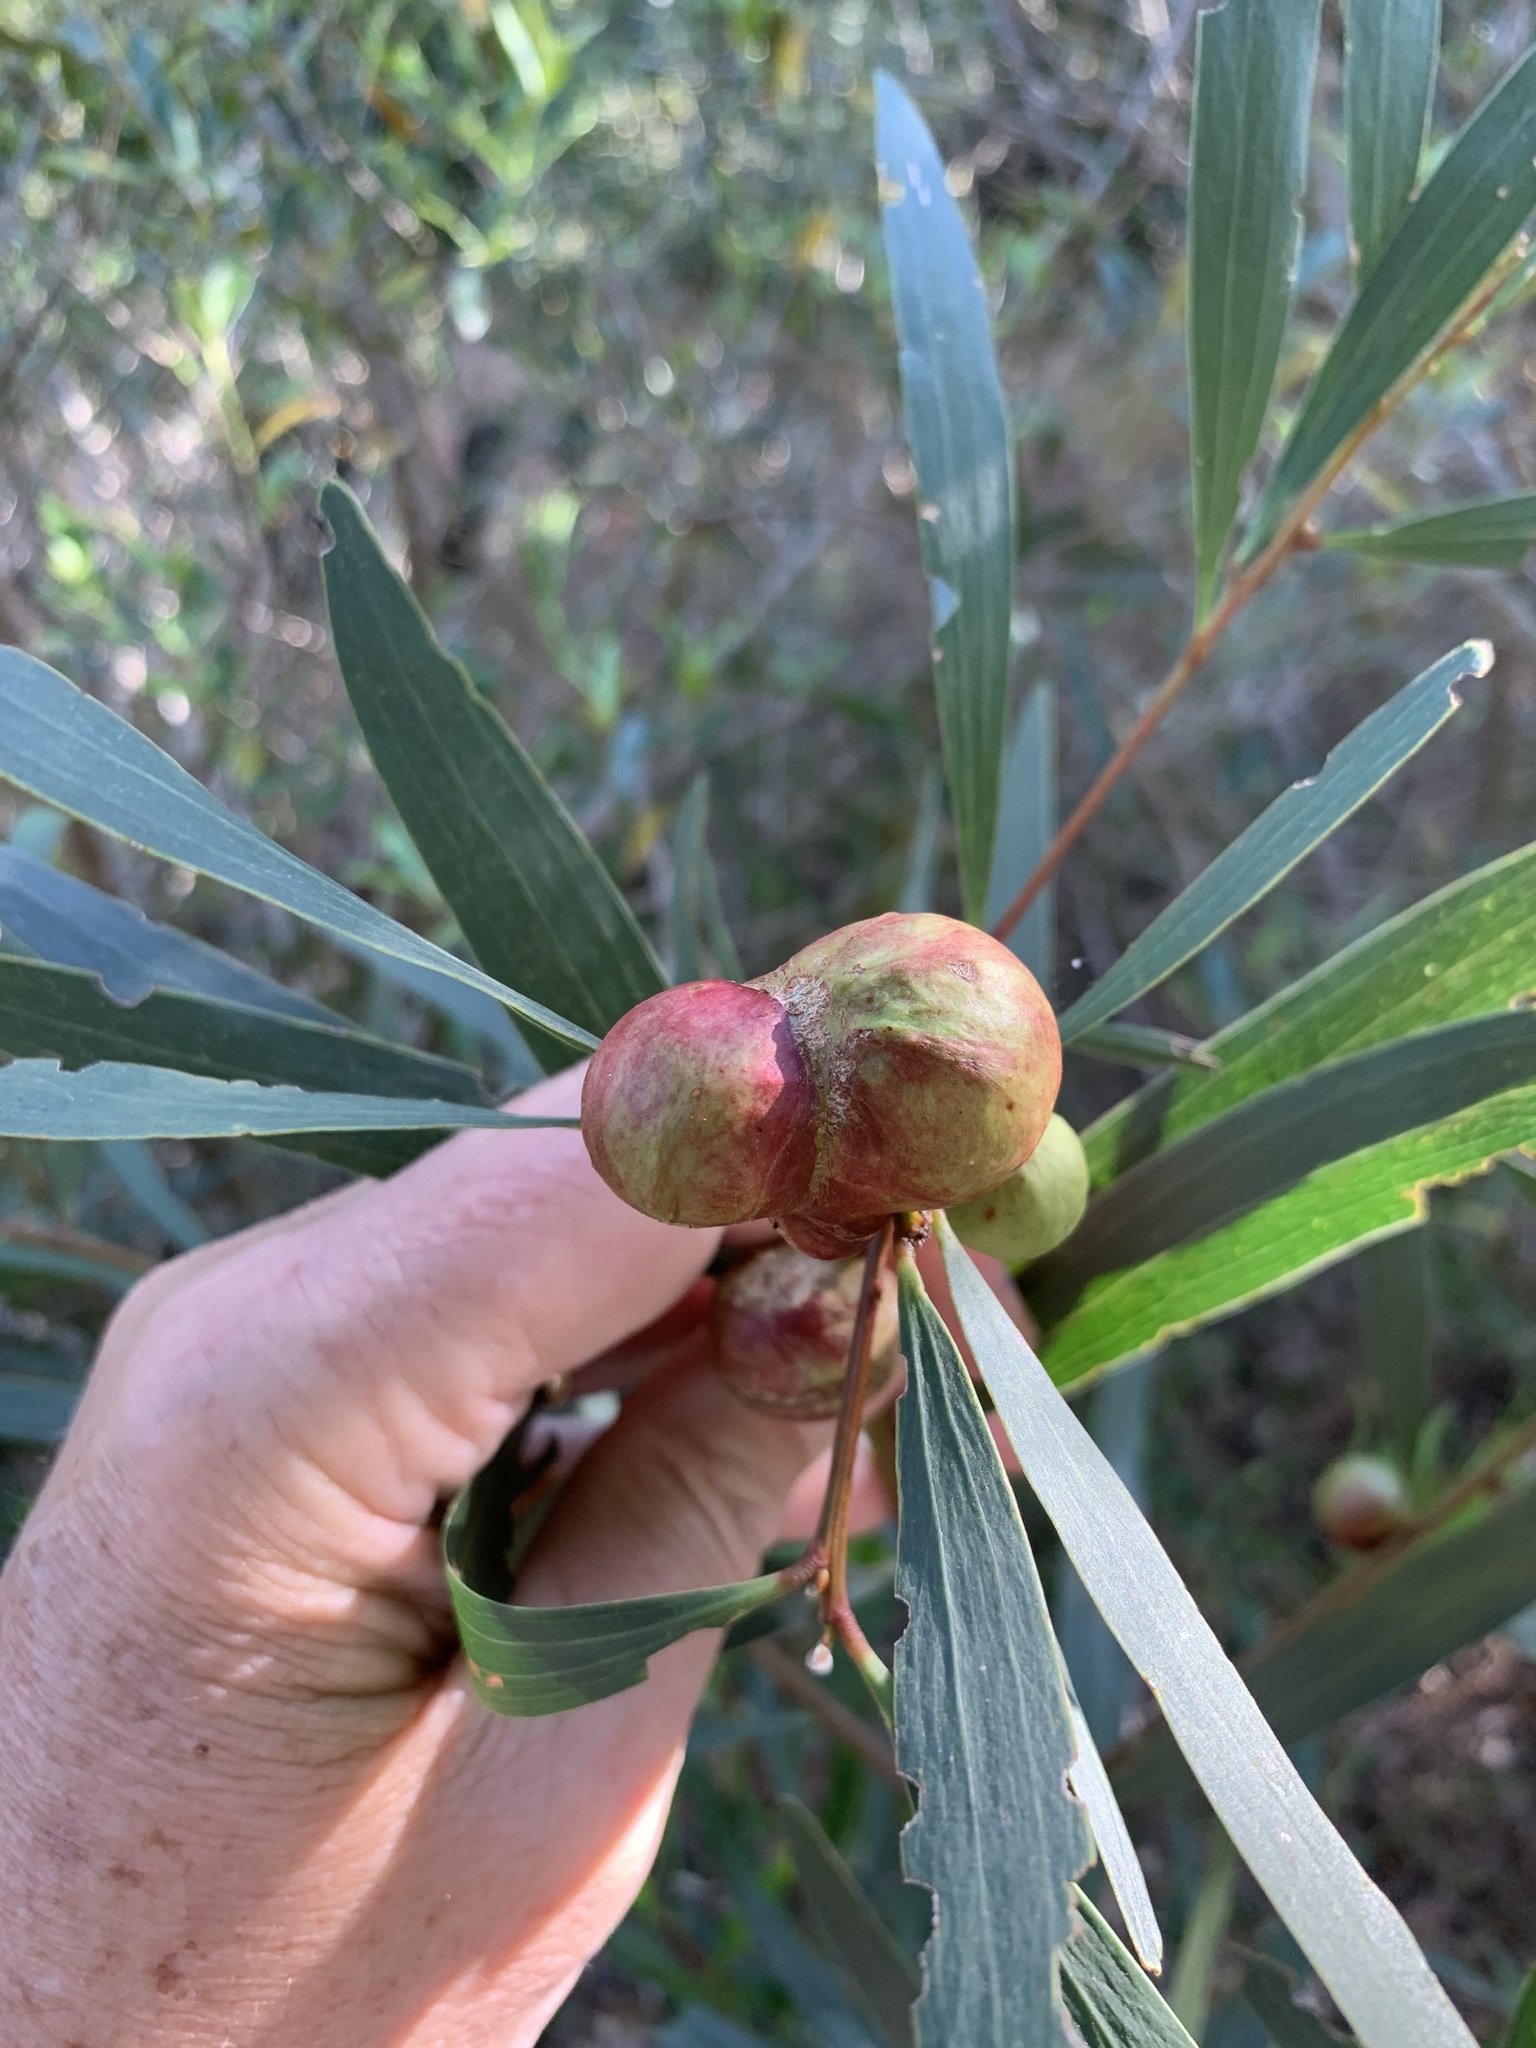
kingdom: Plantae
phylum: Tracheophyta
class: Magnoliopsida
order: Fabales
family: Fabaceae
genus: Acacia
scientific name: Acacia longifolia
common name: Sydney golden wattle
